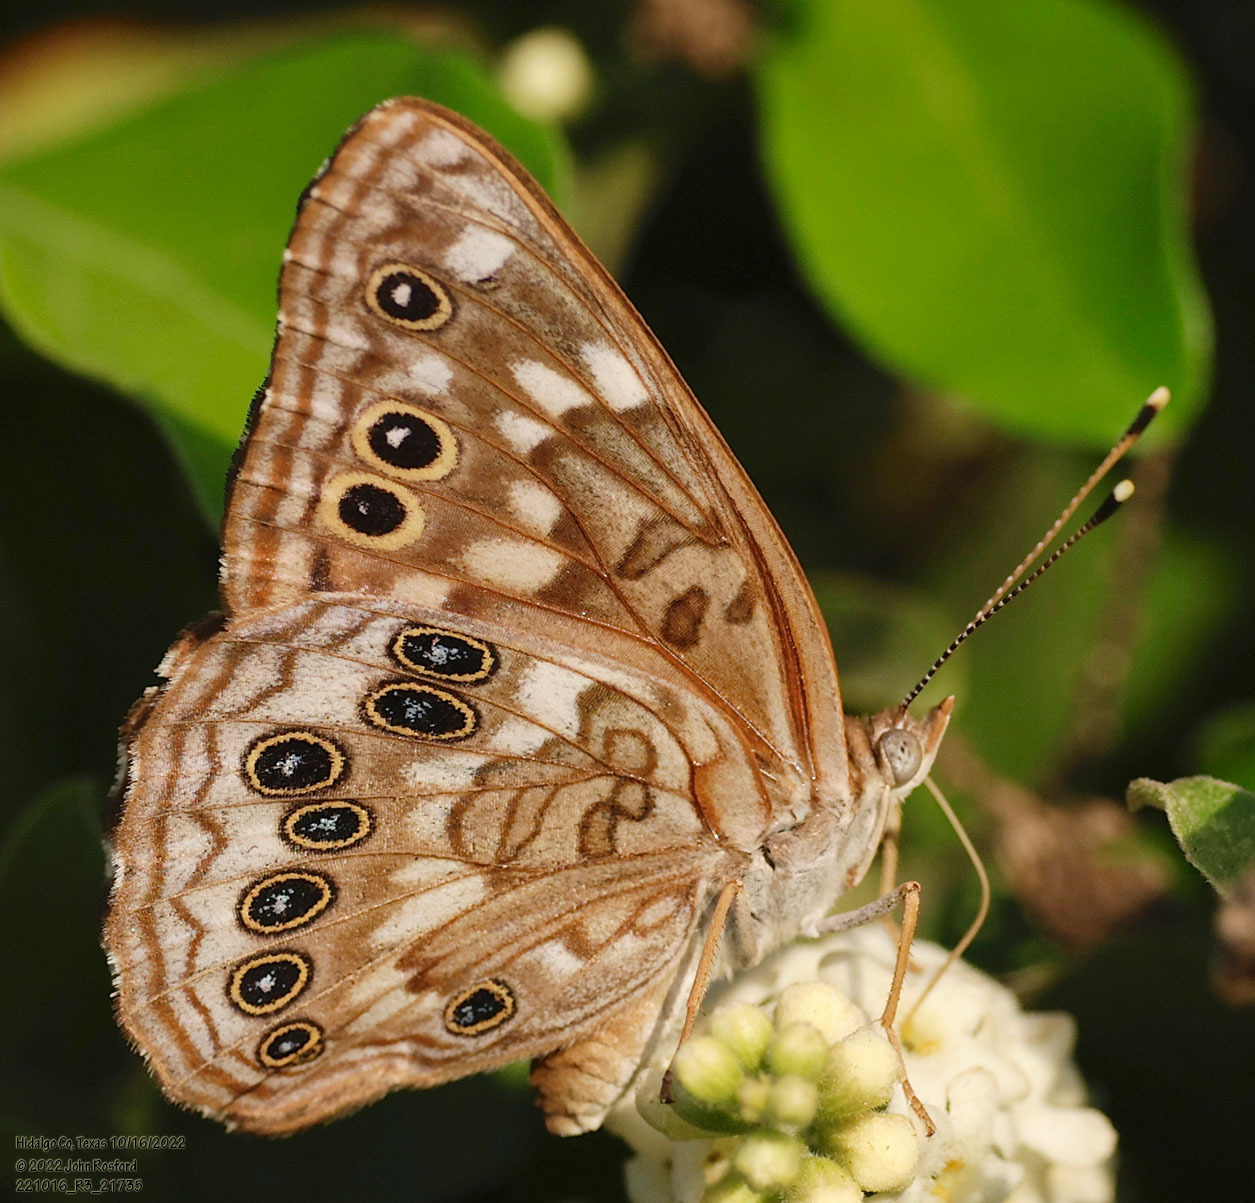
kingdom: Animalia
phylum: Arthropoda
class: Insecta
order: Lepidoptera
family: Nymphalidae
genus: Asterocampa
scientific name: Asterocampa celtis
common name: Hackberry emperor
